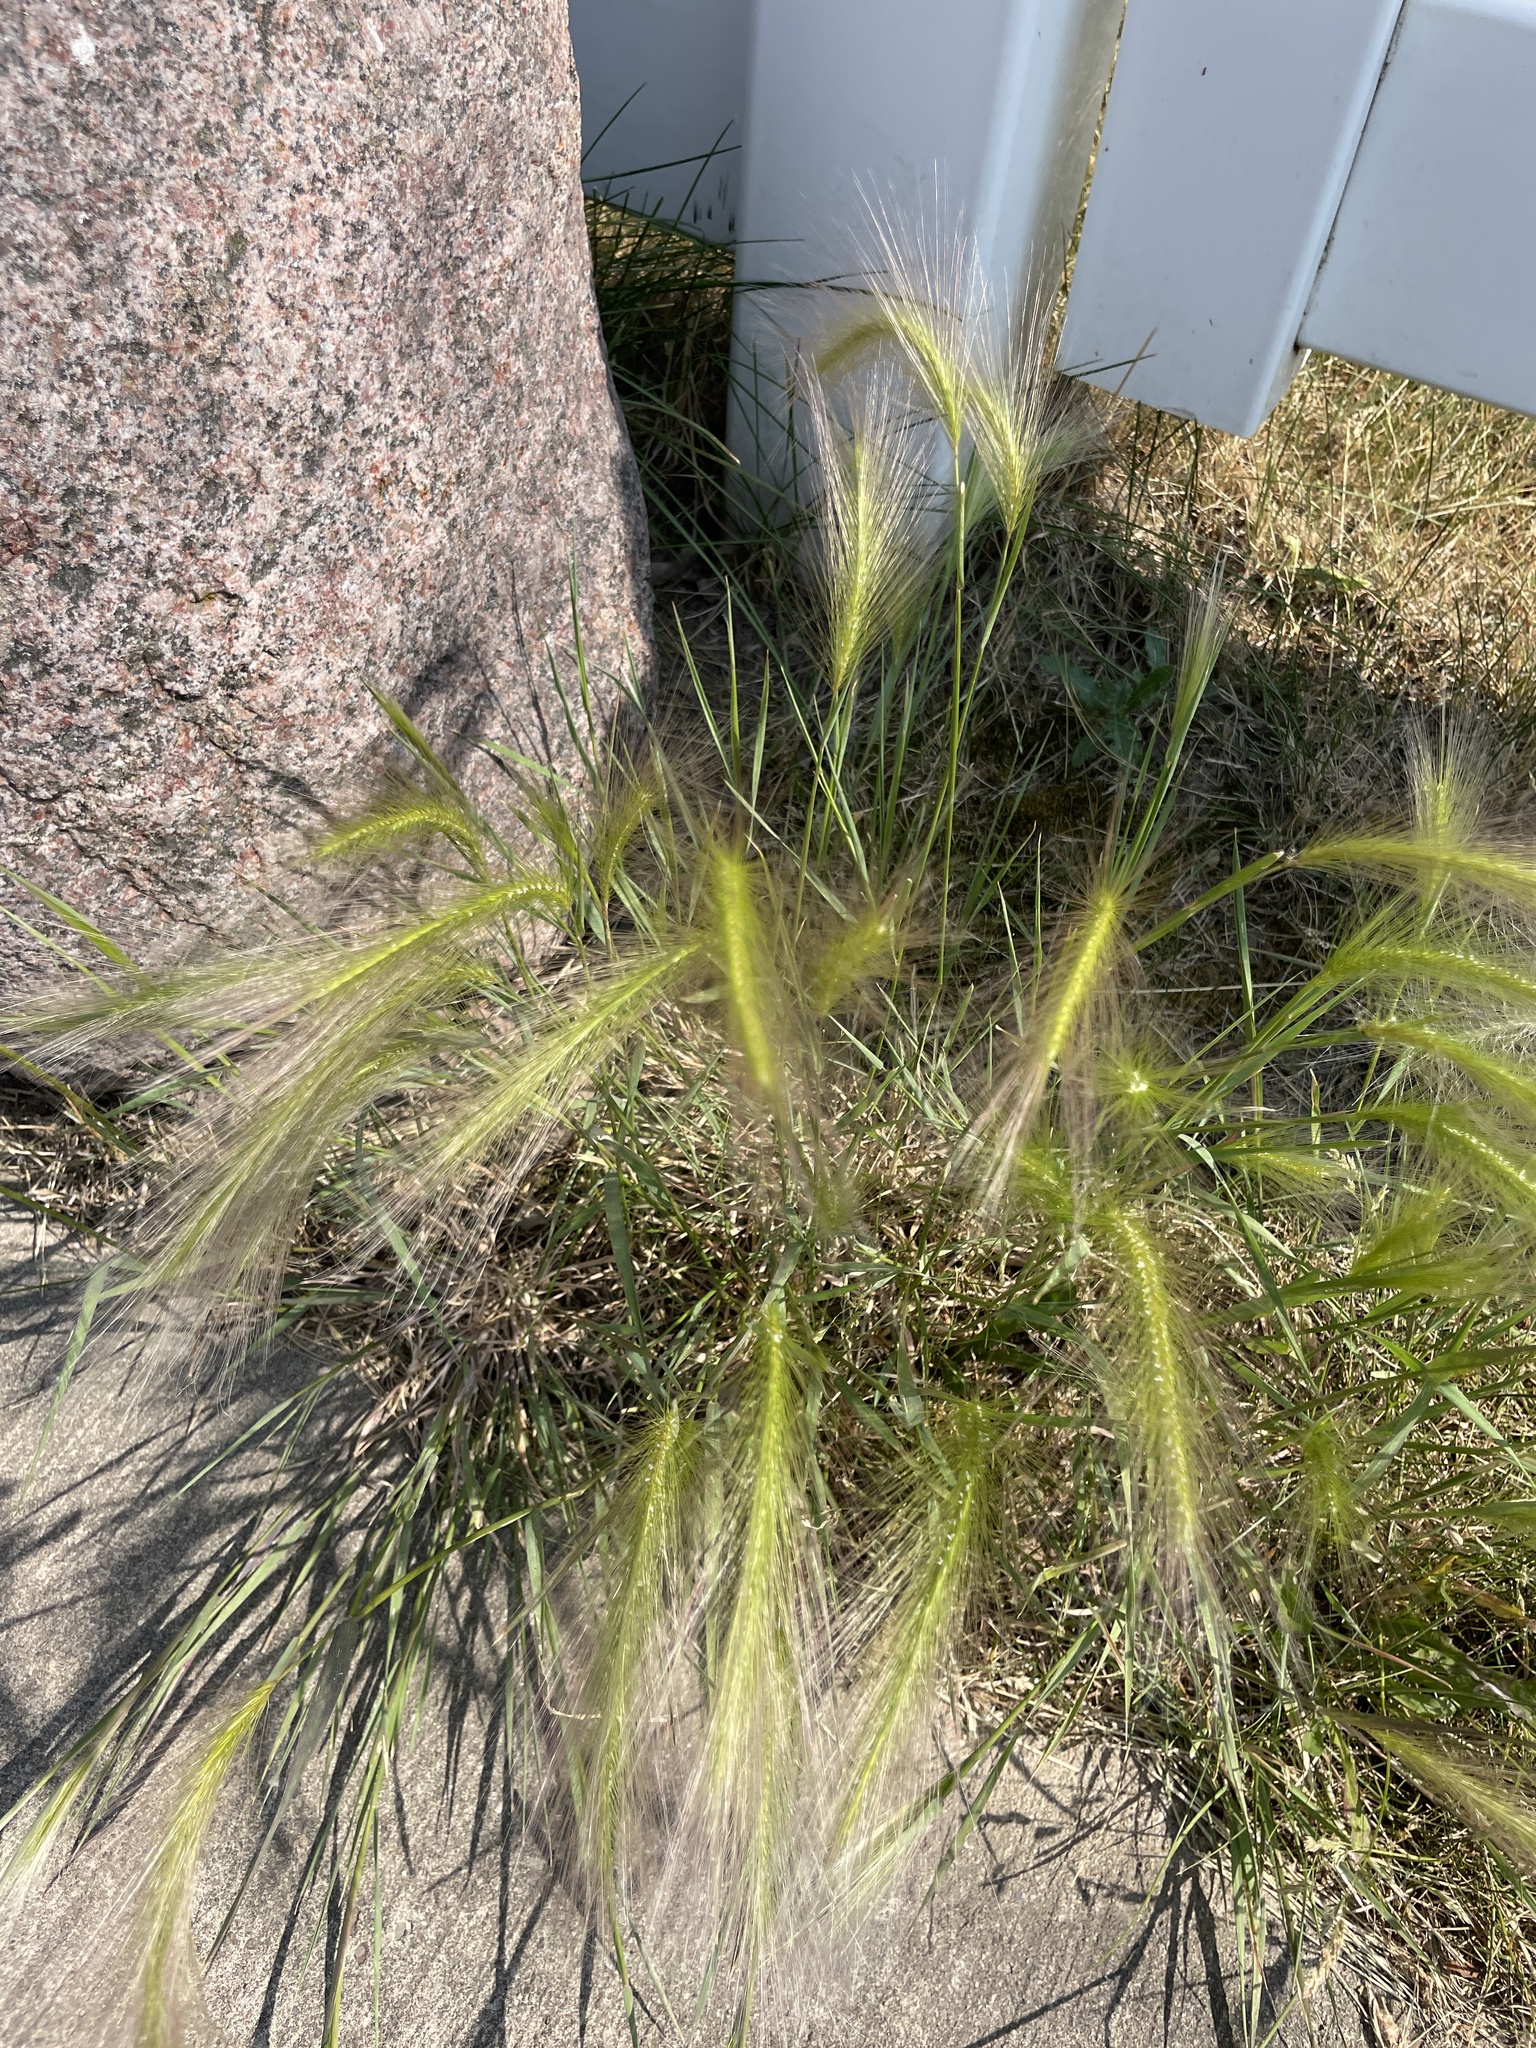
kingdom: Plantae
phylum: Tracheophyta
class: Liliopsida
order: Poales
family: Poaceae
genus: Hordeum
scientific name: Hordeum jubatum
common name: Foxtail barley
